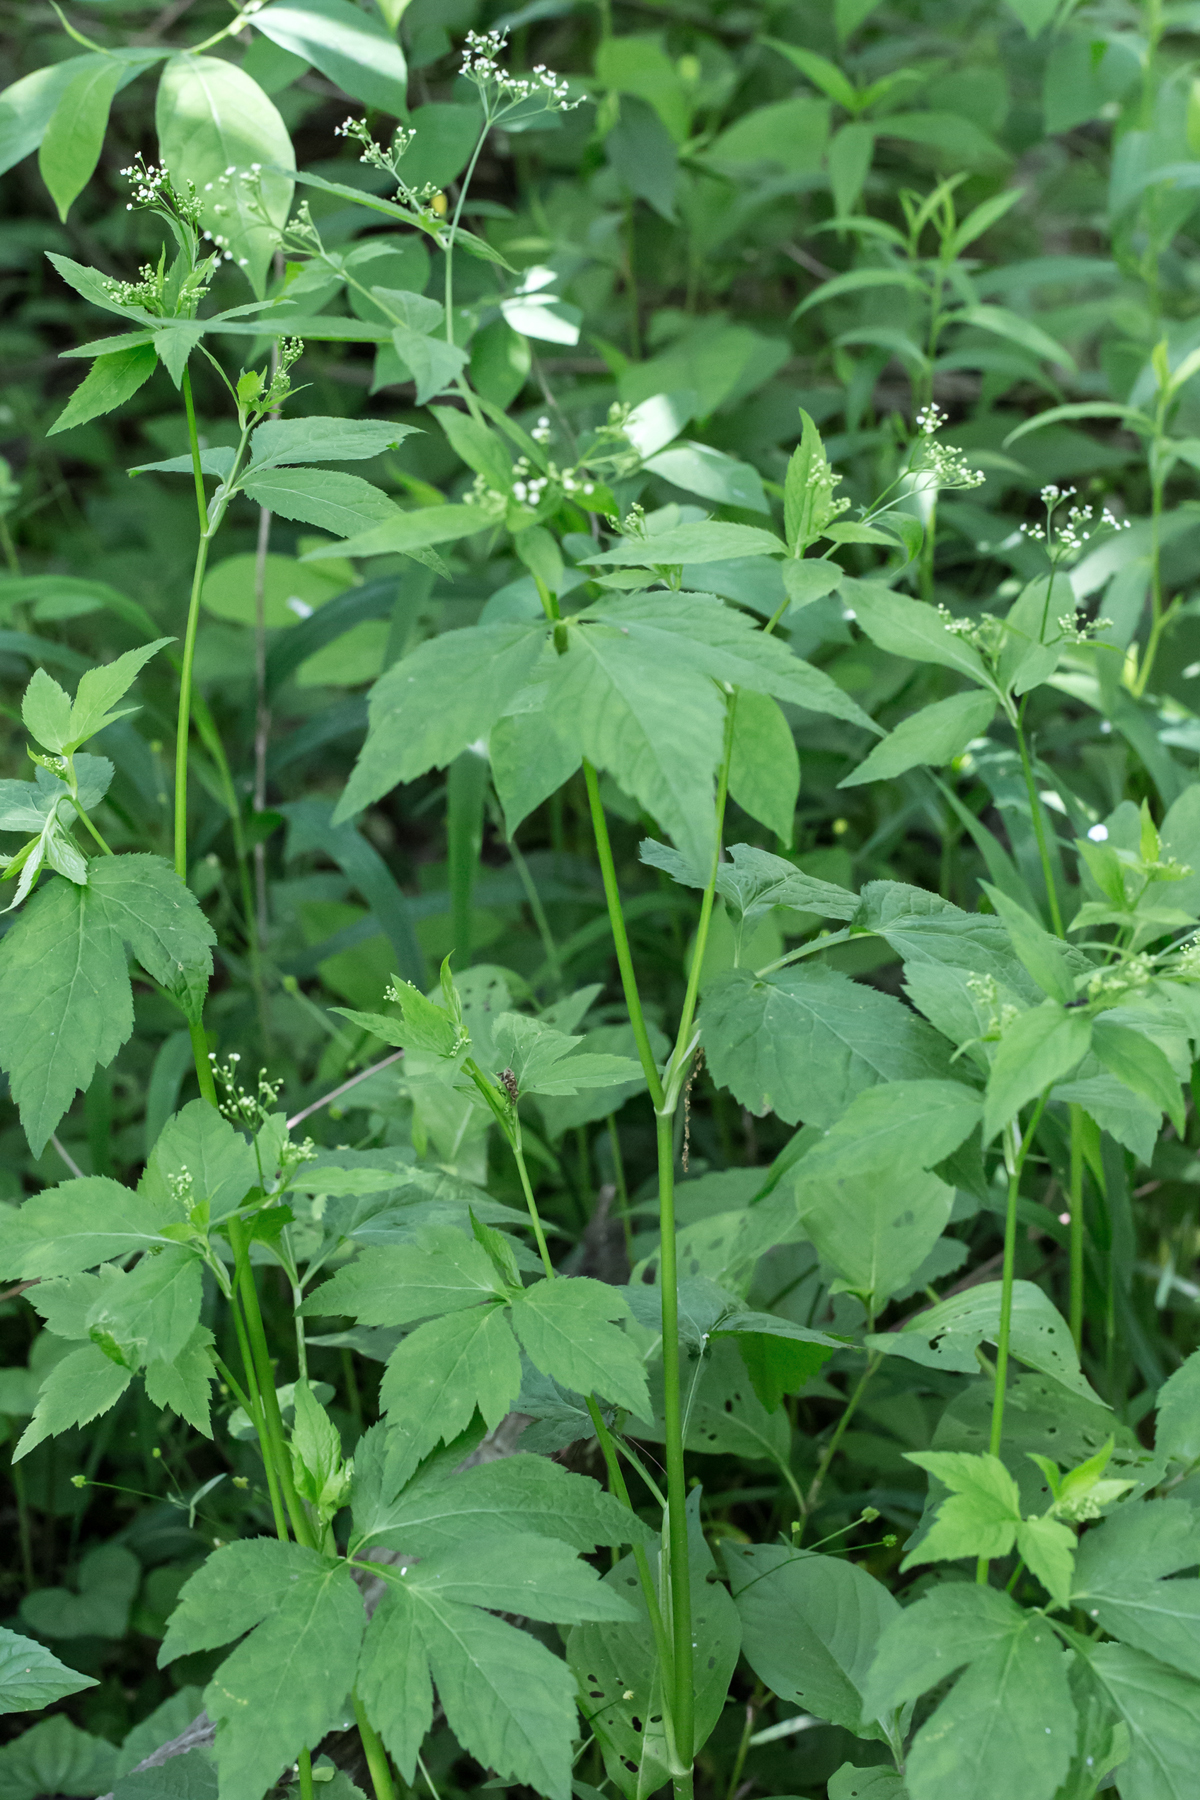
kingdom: Plantae
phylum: Tracheophyta
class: Magnoliopsida
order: Apiales
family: Apiaceae
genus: Cryptotaenia
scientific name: Cryptotaenia canadensis
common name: Honewort
